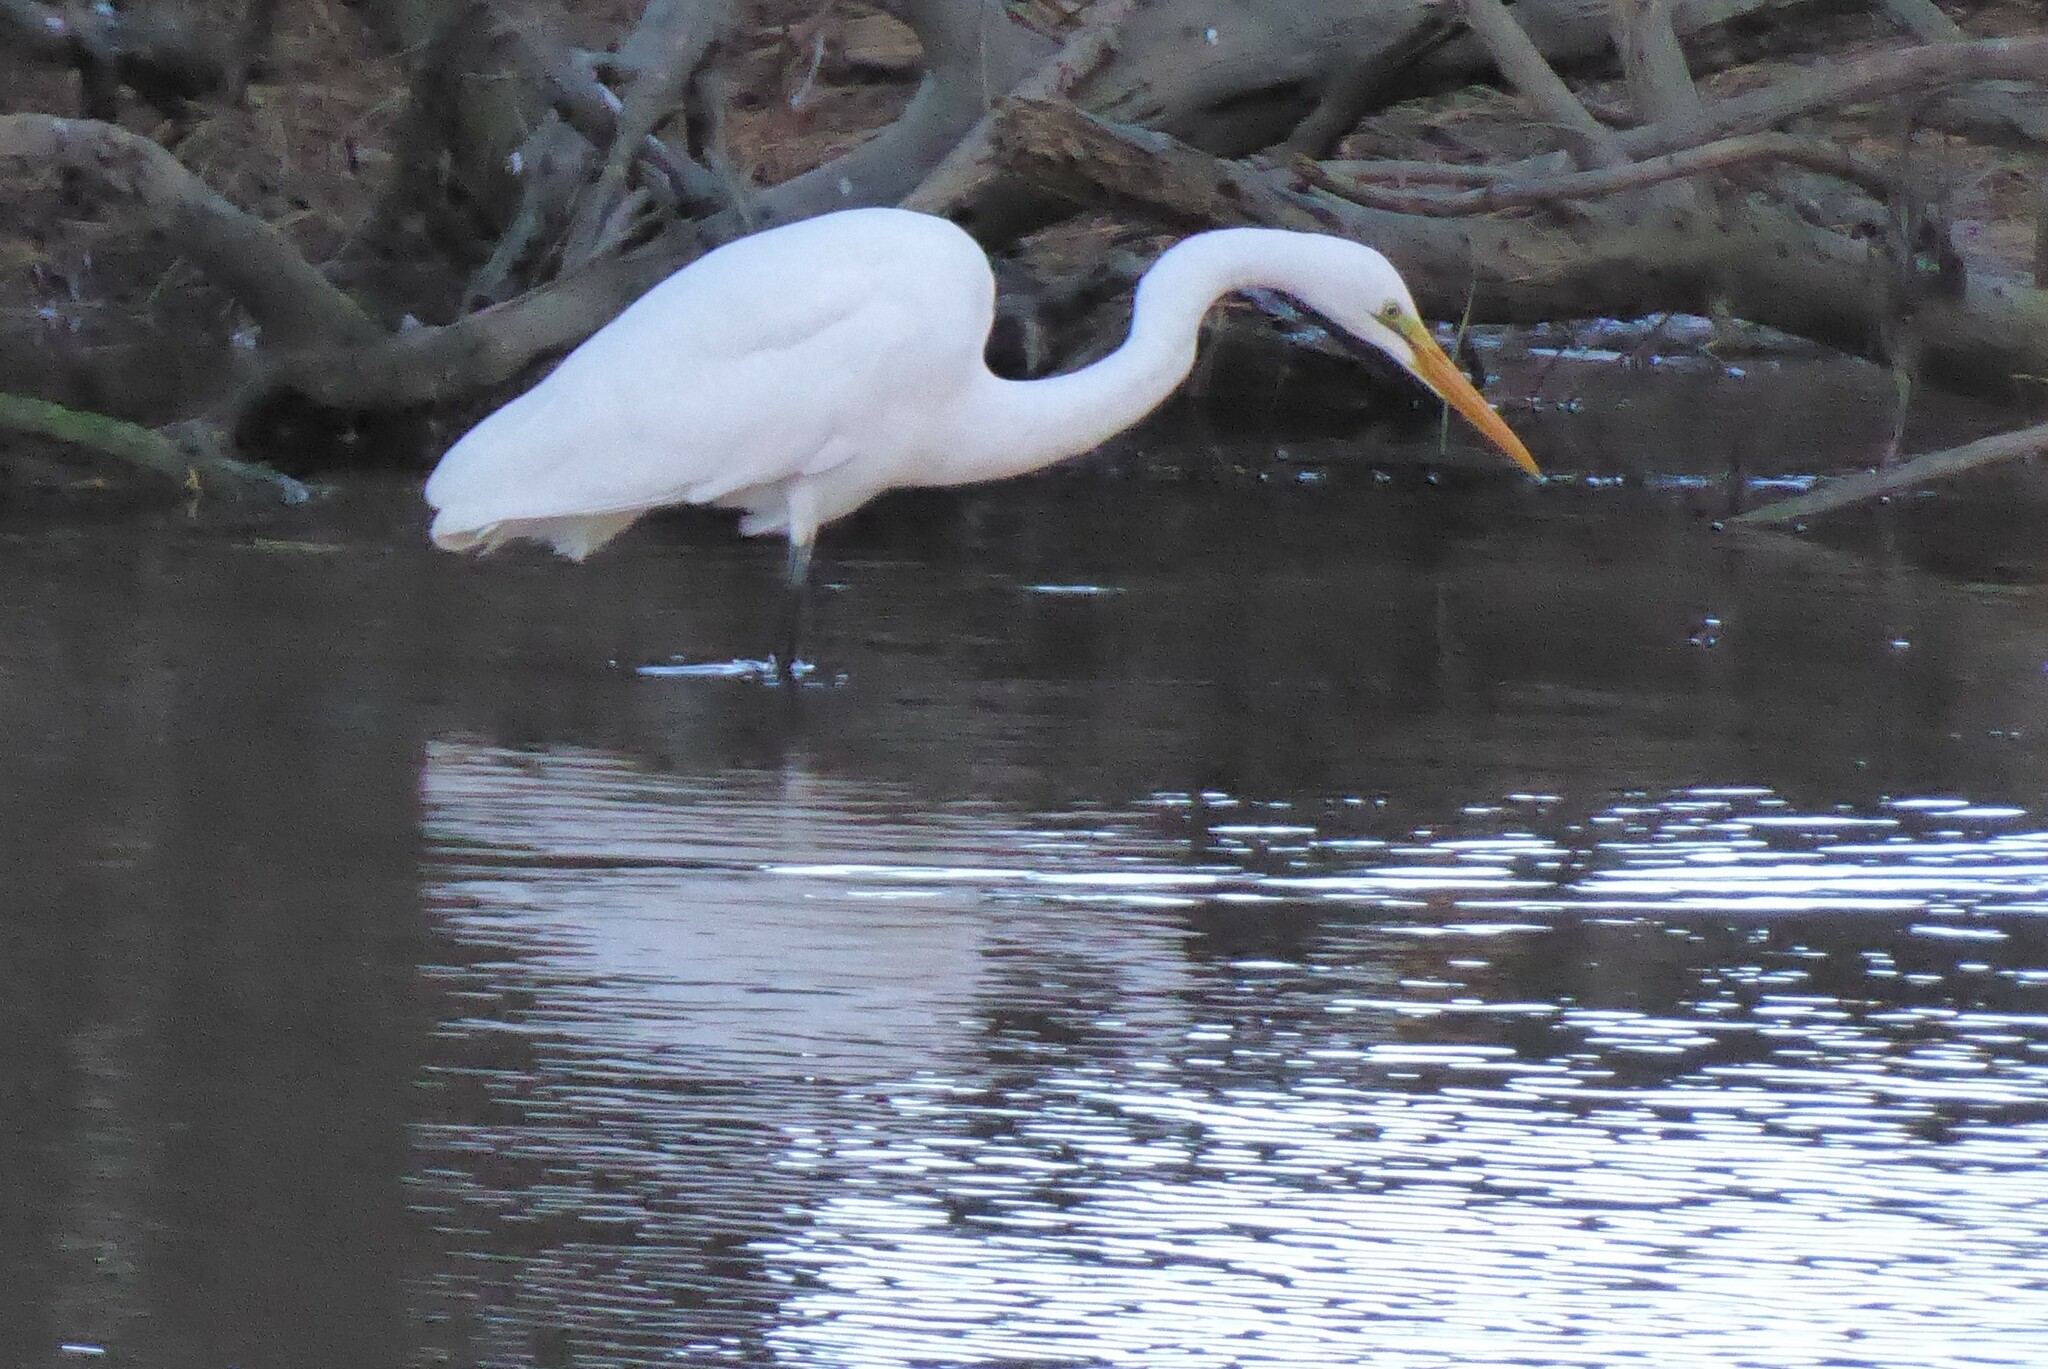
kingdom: Animalia
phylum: Chordata
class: Aves
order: Pelecaniformes
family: Ardeidae
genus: Ardea
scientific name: Ardea modesta
